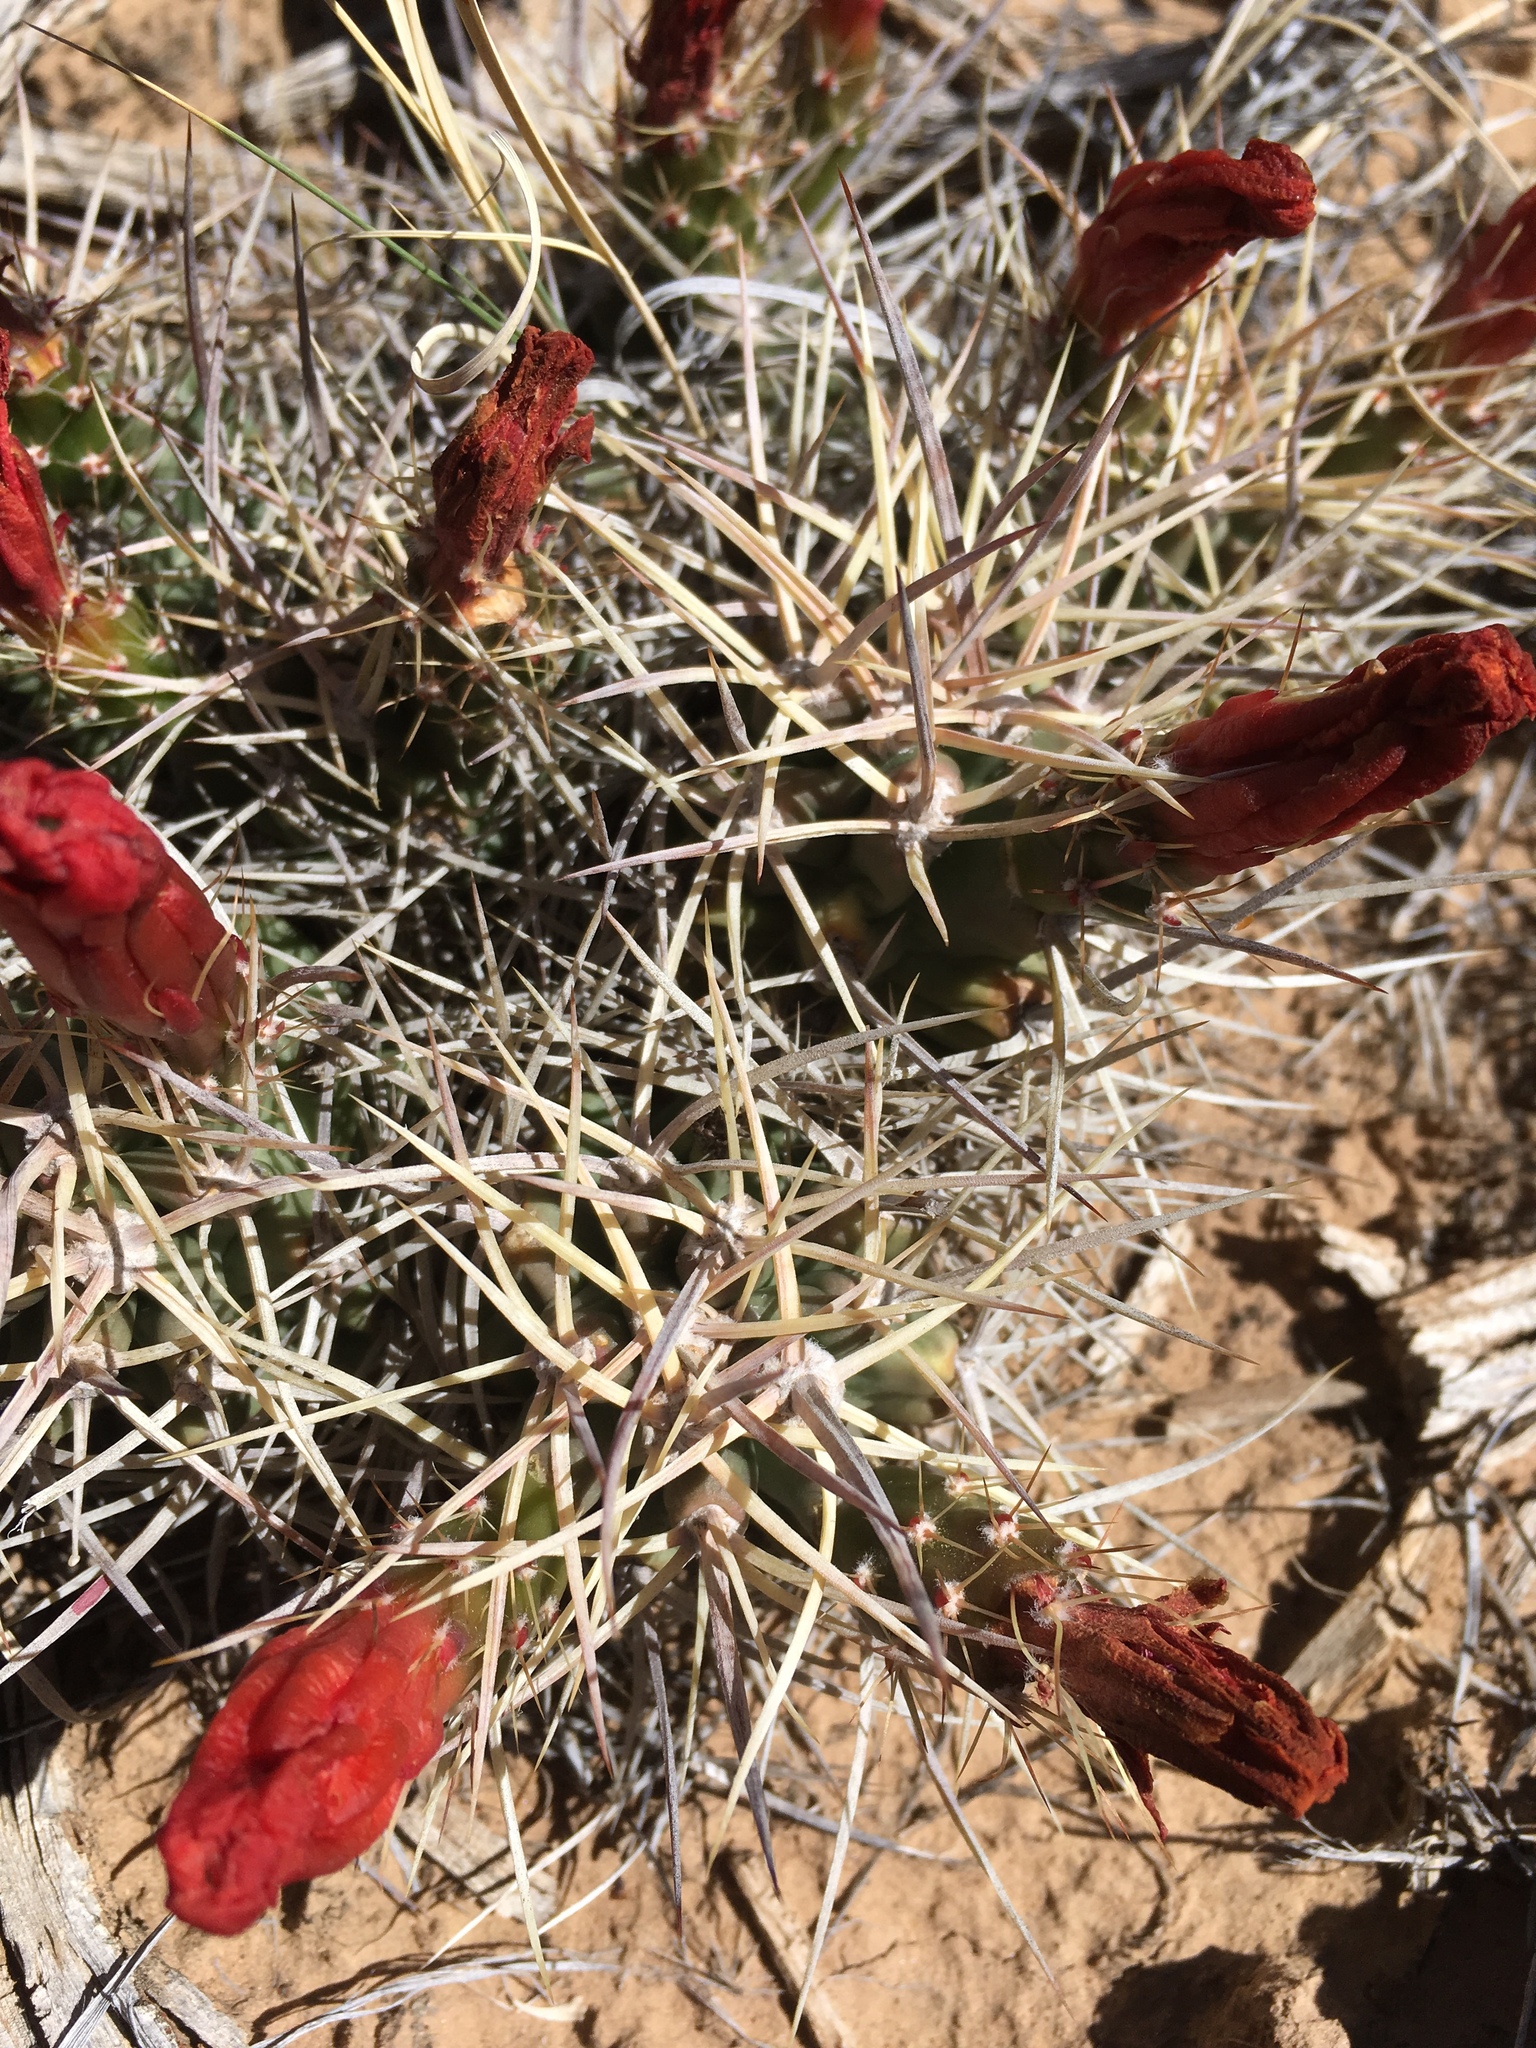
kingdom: Plantae
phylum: Tracheophyta
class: Magnoliopsida
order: Caryophyllales
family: Cactaceae
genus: Echinocereus
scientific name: Echinocereus triglochidiatus
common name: Claretcup hedgehog
